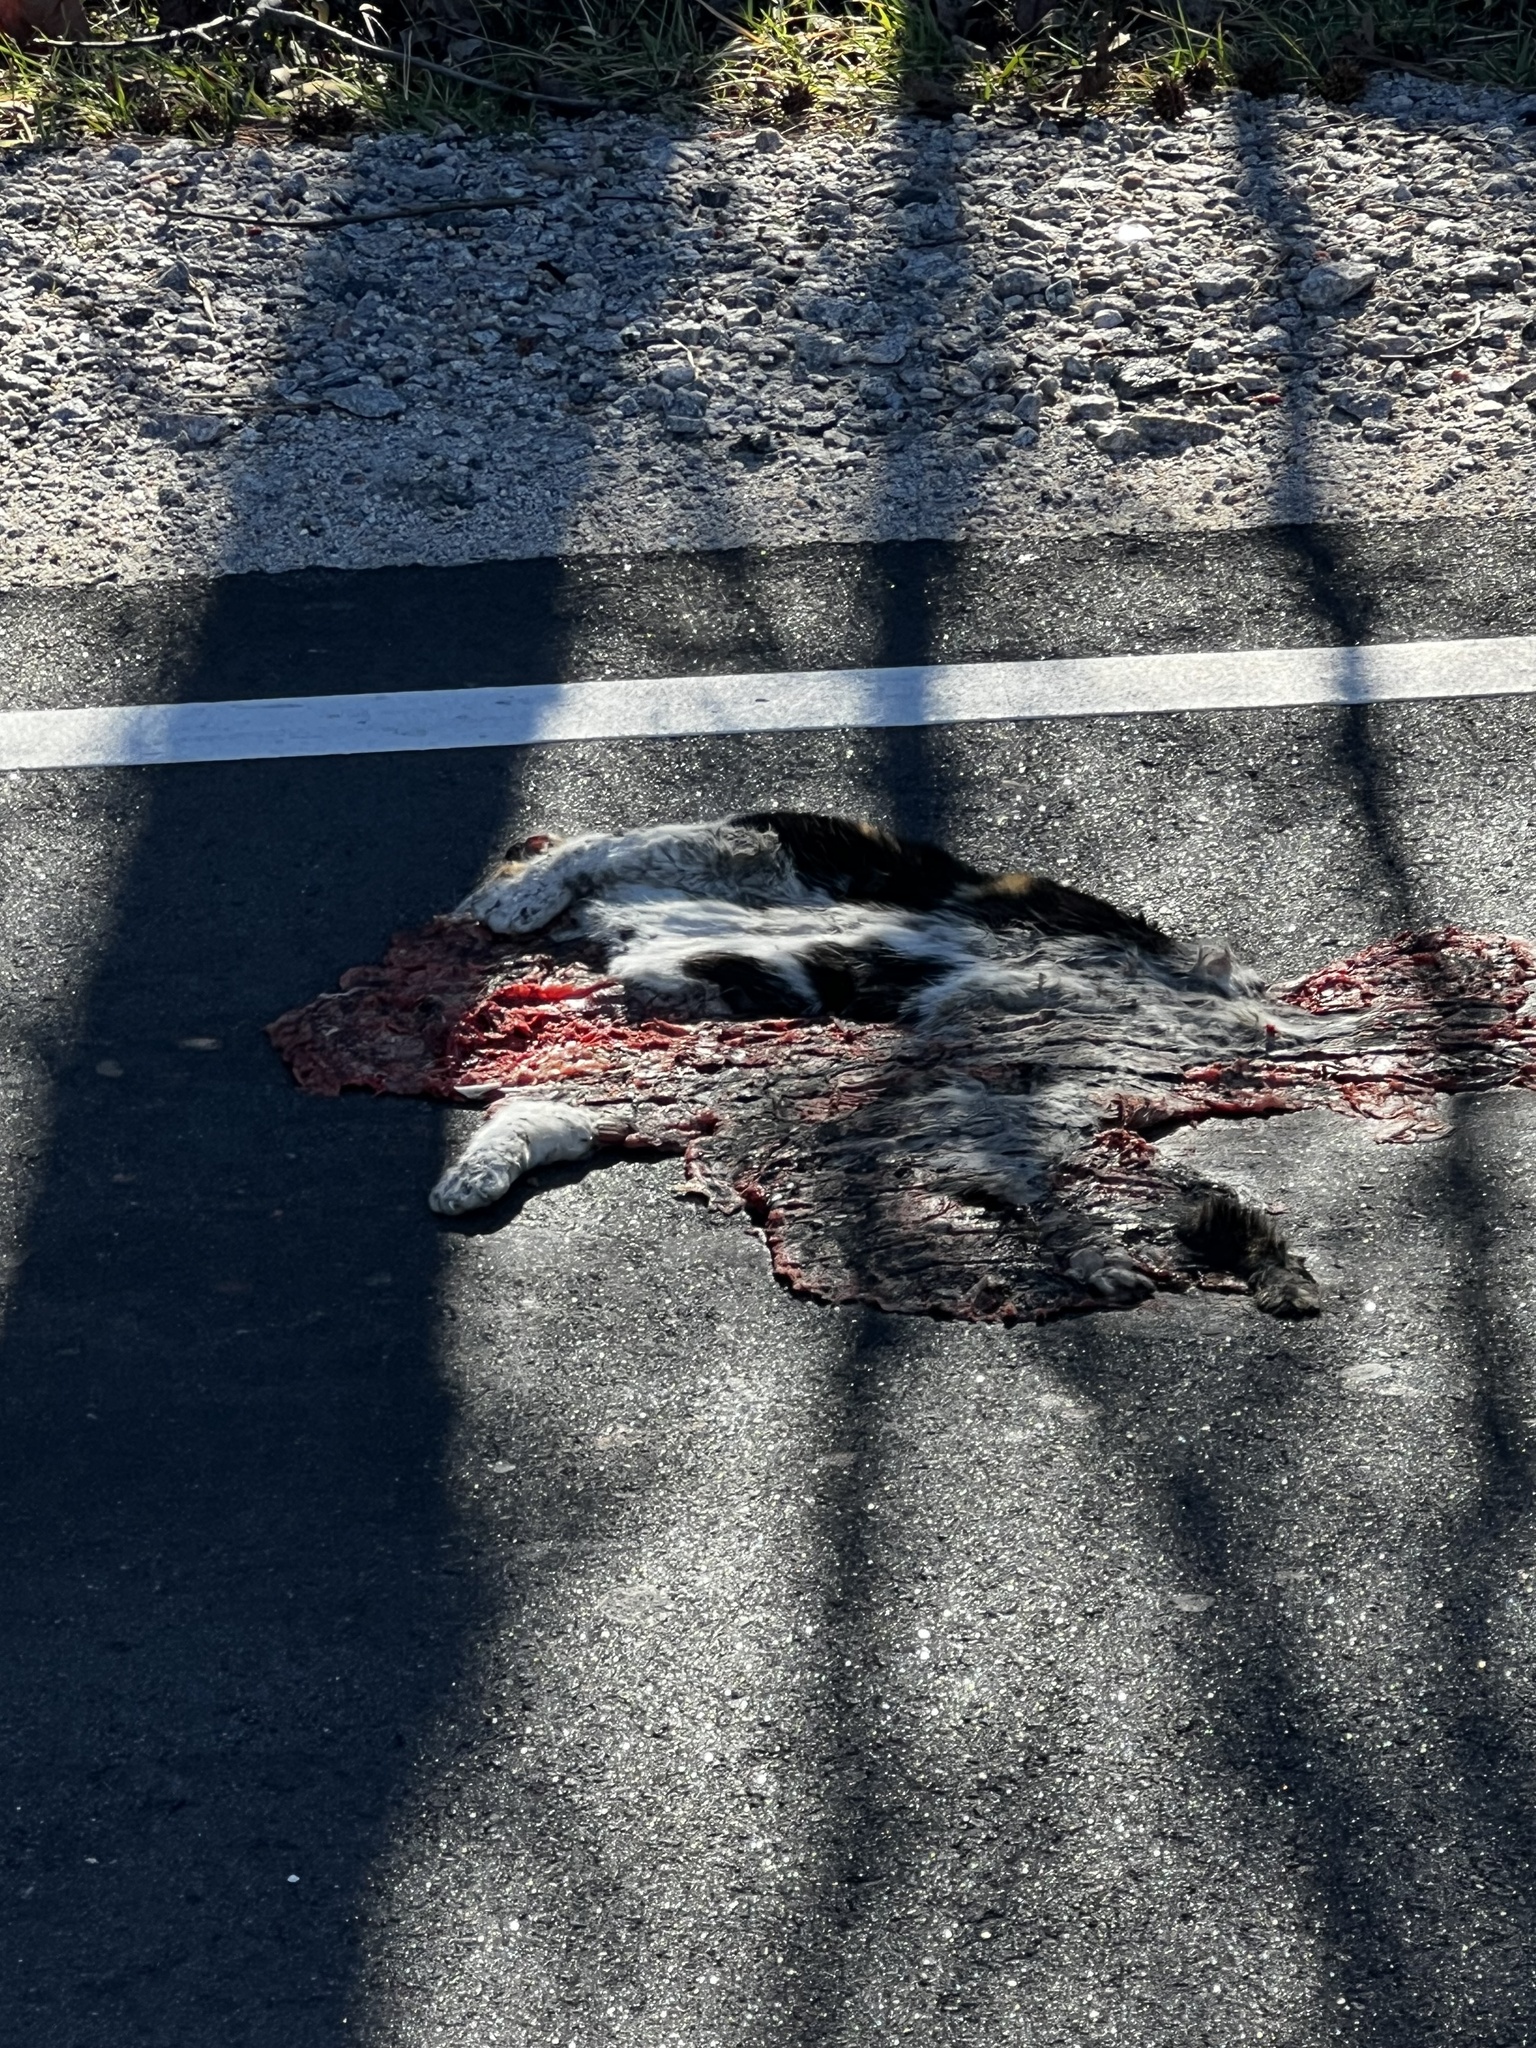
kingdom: Animalia
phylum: Chordata
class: Mammalia
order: Carnivora
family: Felidae
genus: Felis
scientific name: Felis catus
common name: Domestic cat
